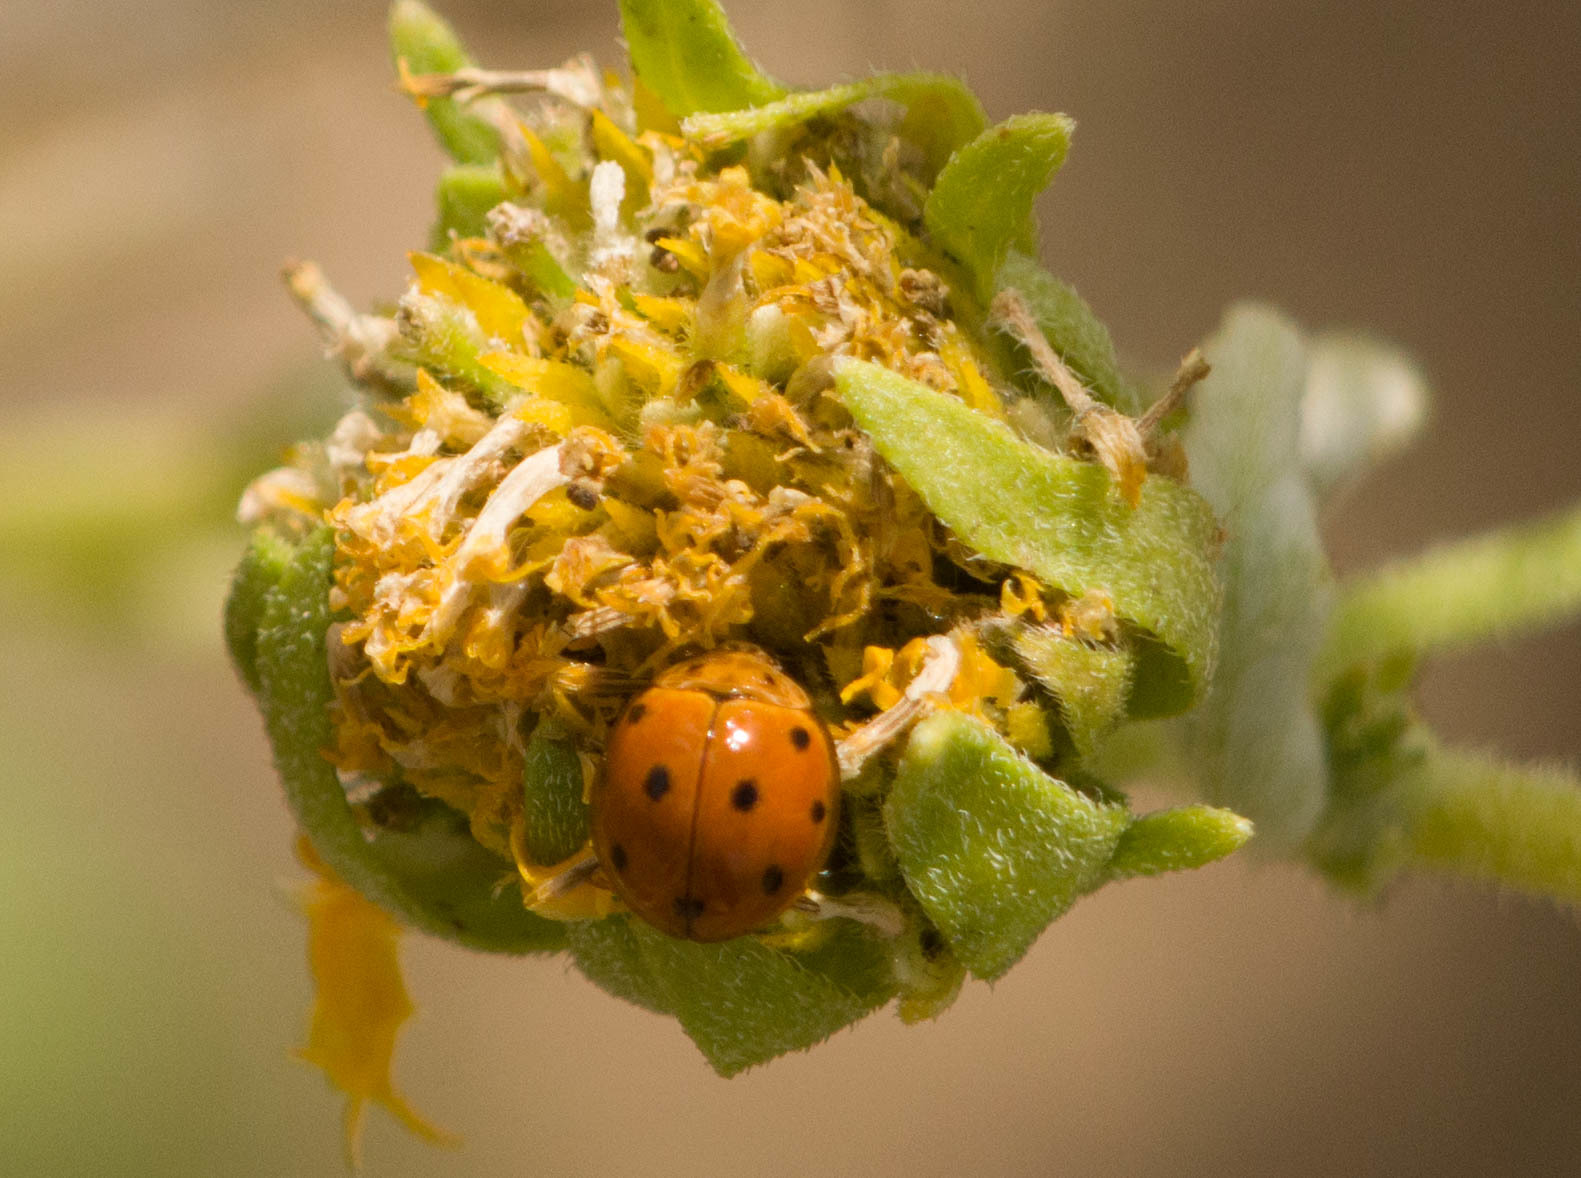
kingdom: Animalia
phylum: Arthropoda
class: Insecta
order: Coleoptera
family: Coccinellidae
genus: Coelophora
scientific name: Coelophora inaequalis
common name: Common australian lady beetle
